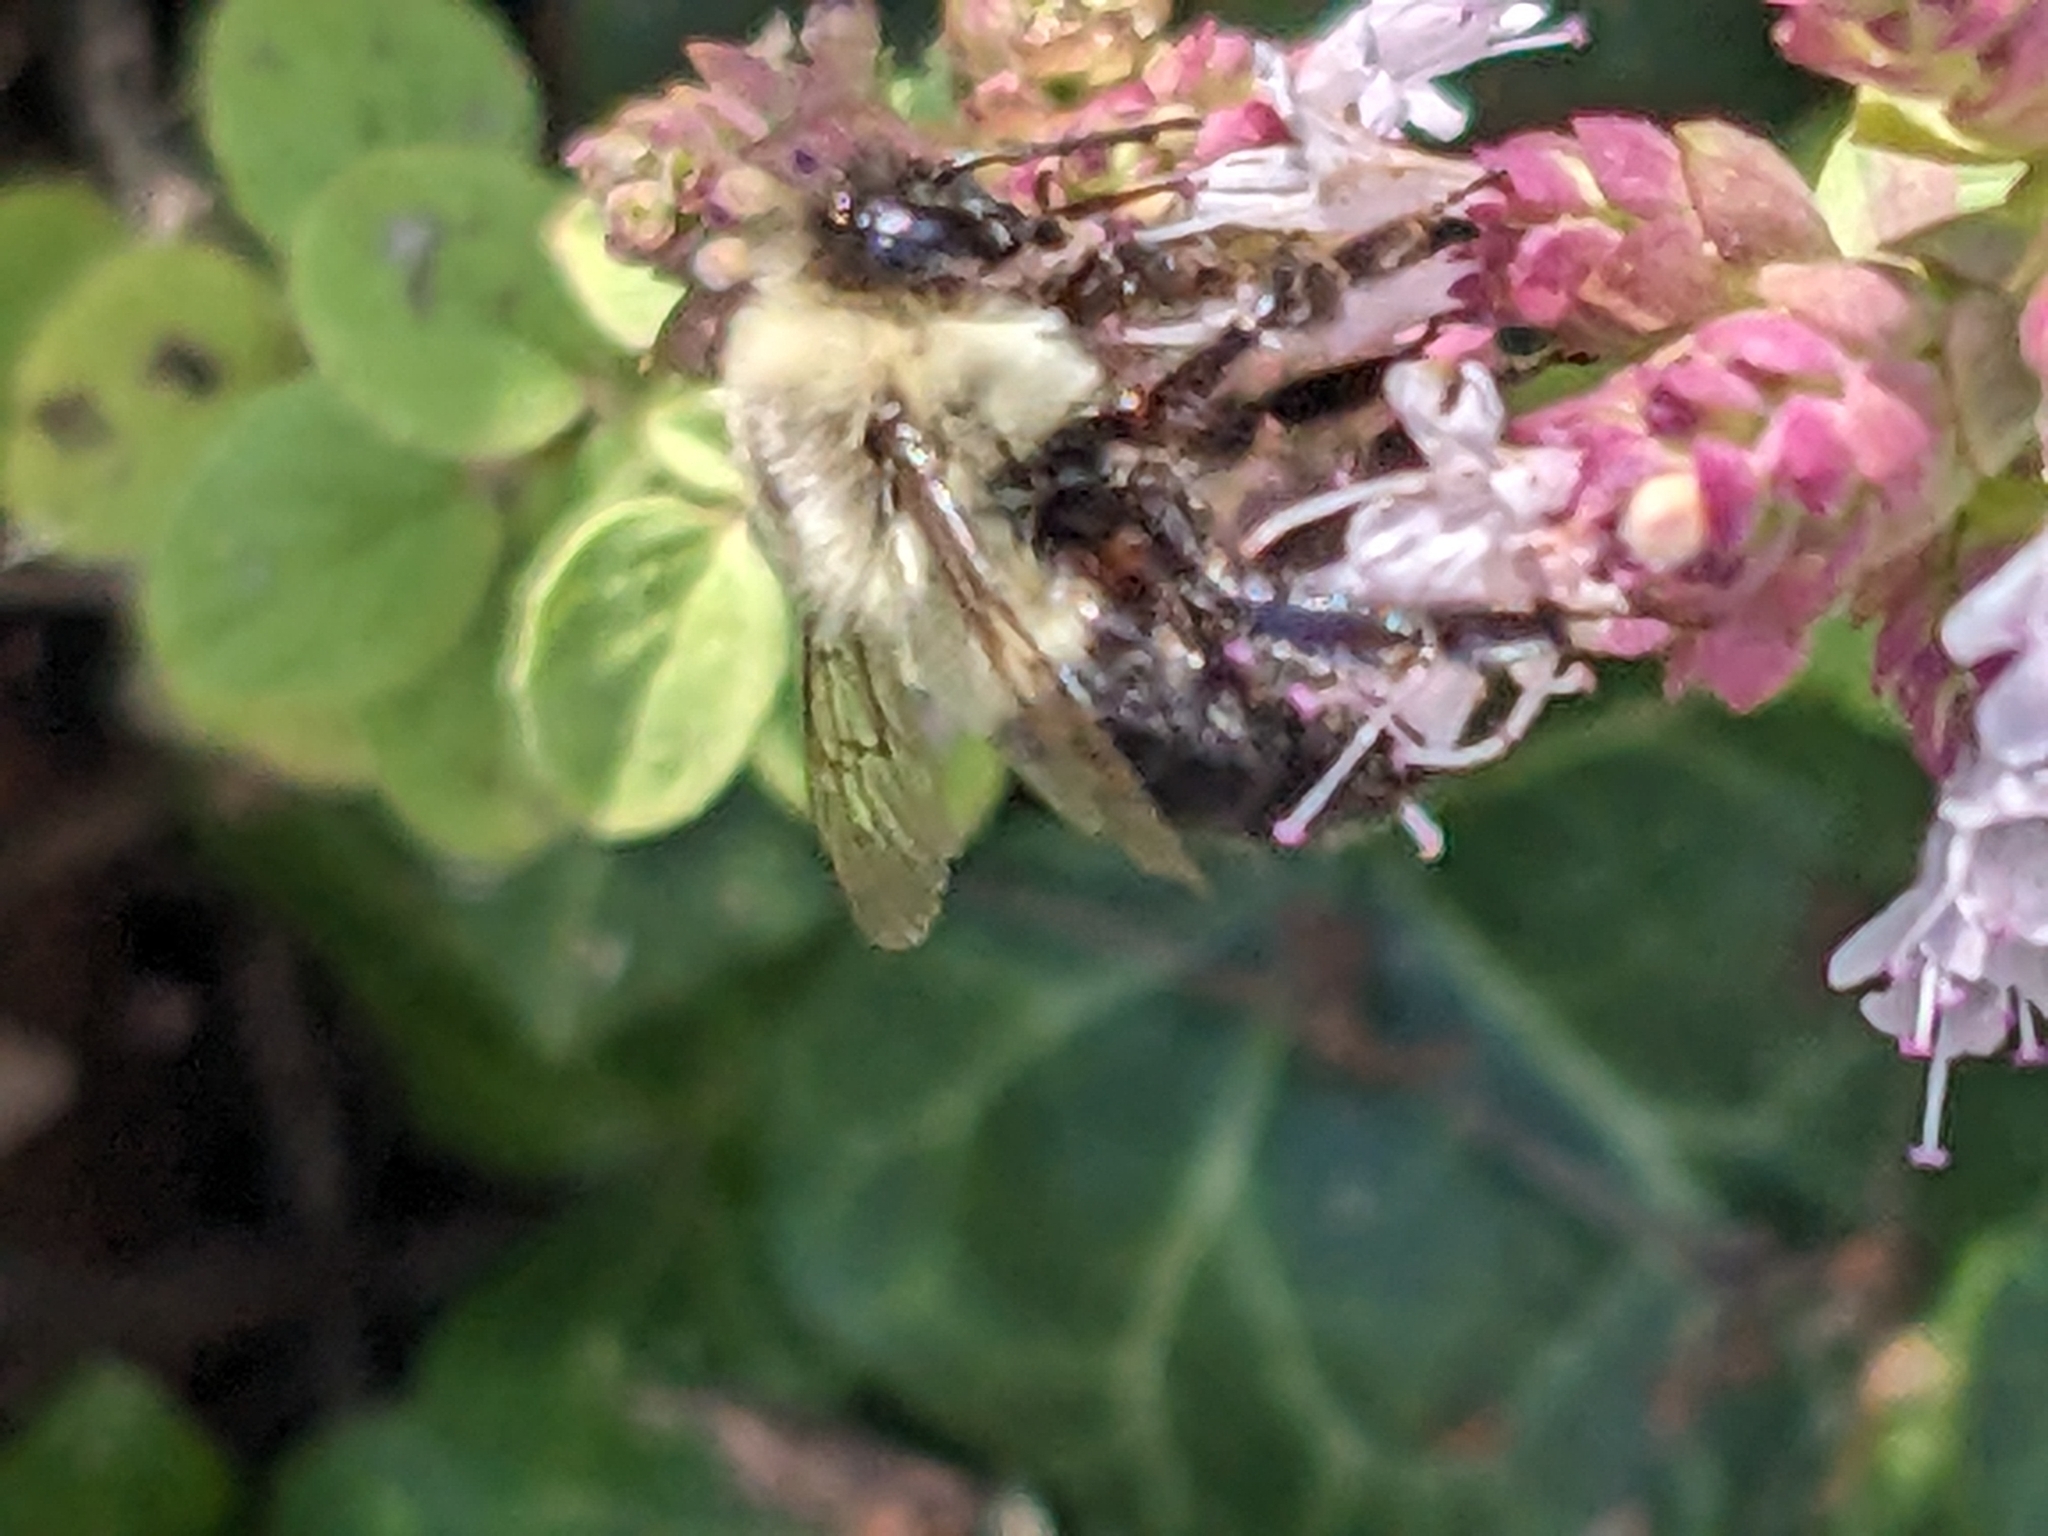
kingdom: Animalia
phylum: Arthropoda
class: Insecta
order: Hymenoptera
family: Apidae
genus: Bombus
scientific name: Bombus impatiens
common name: Common eastern bumble bee
